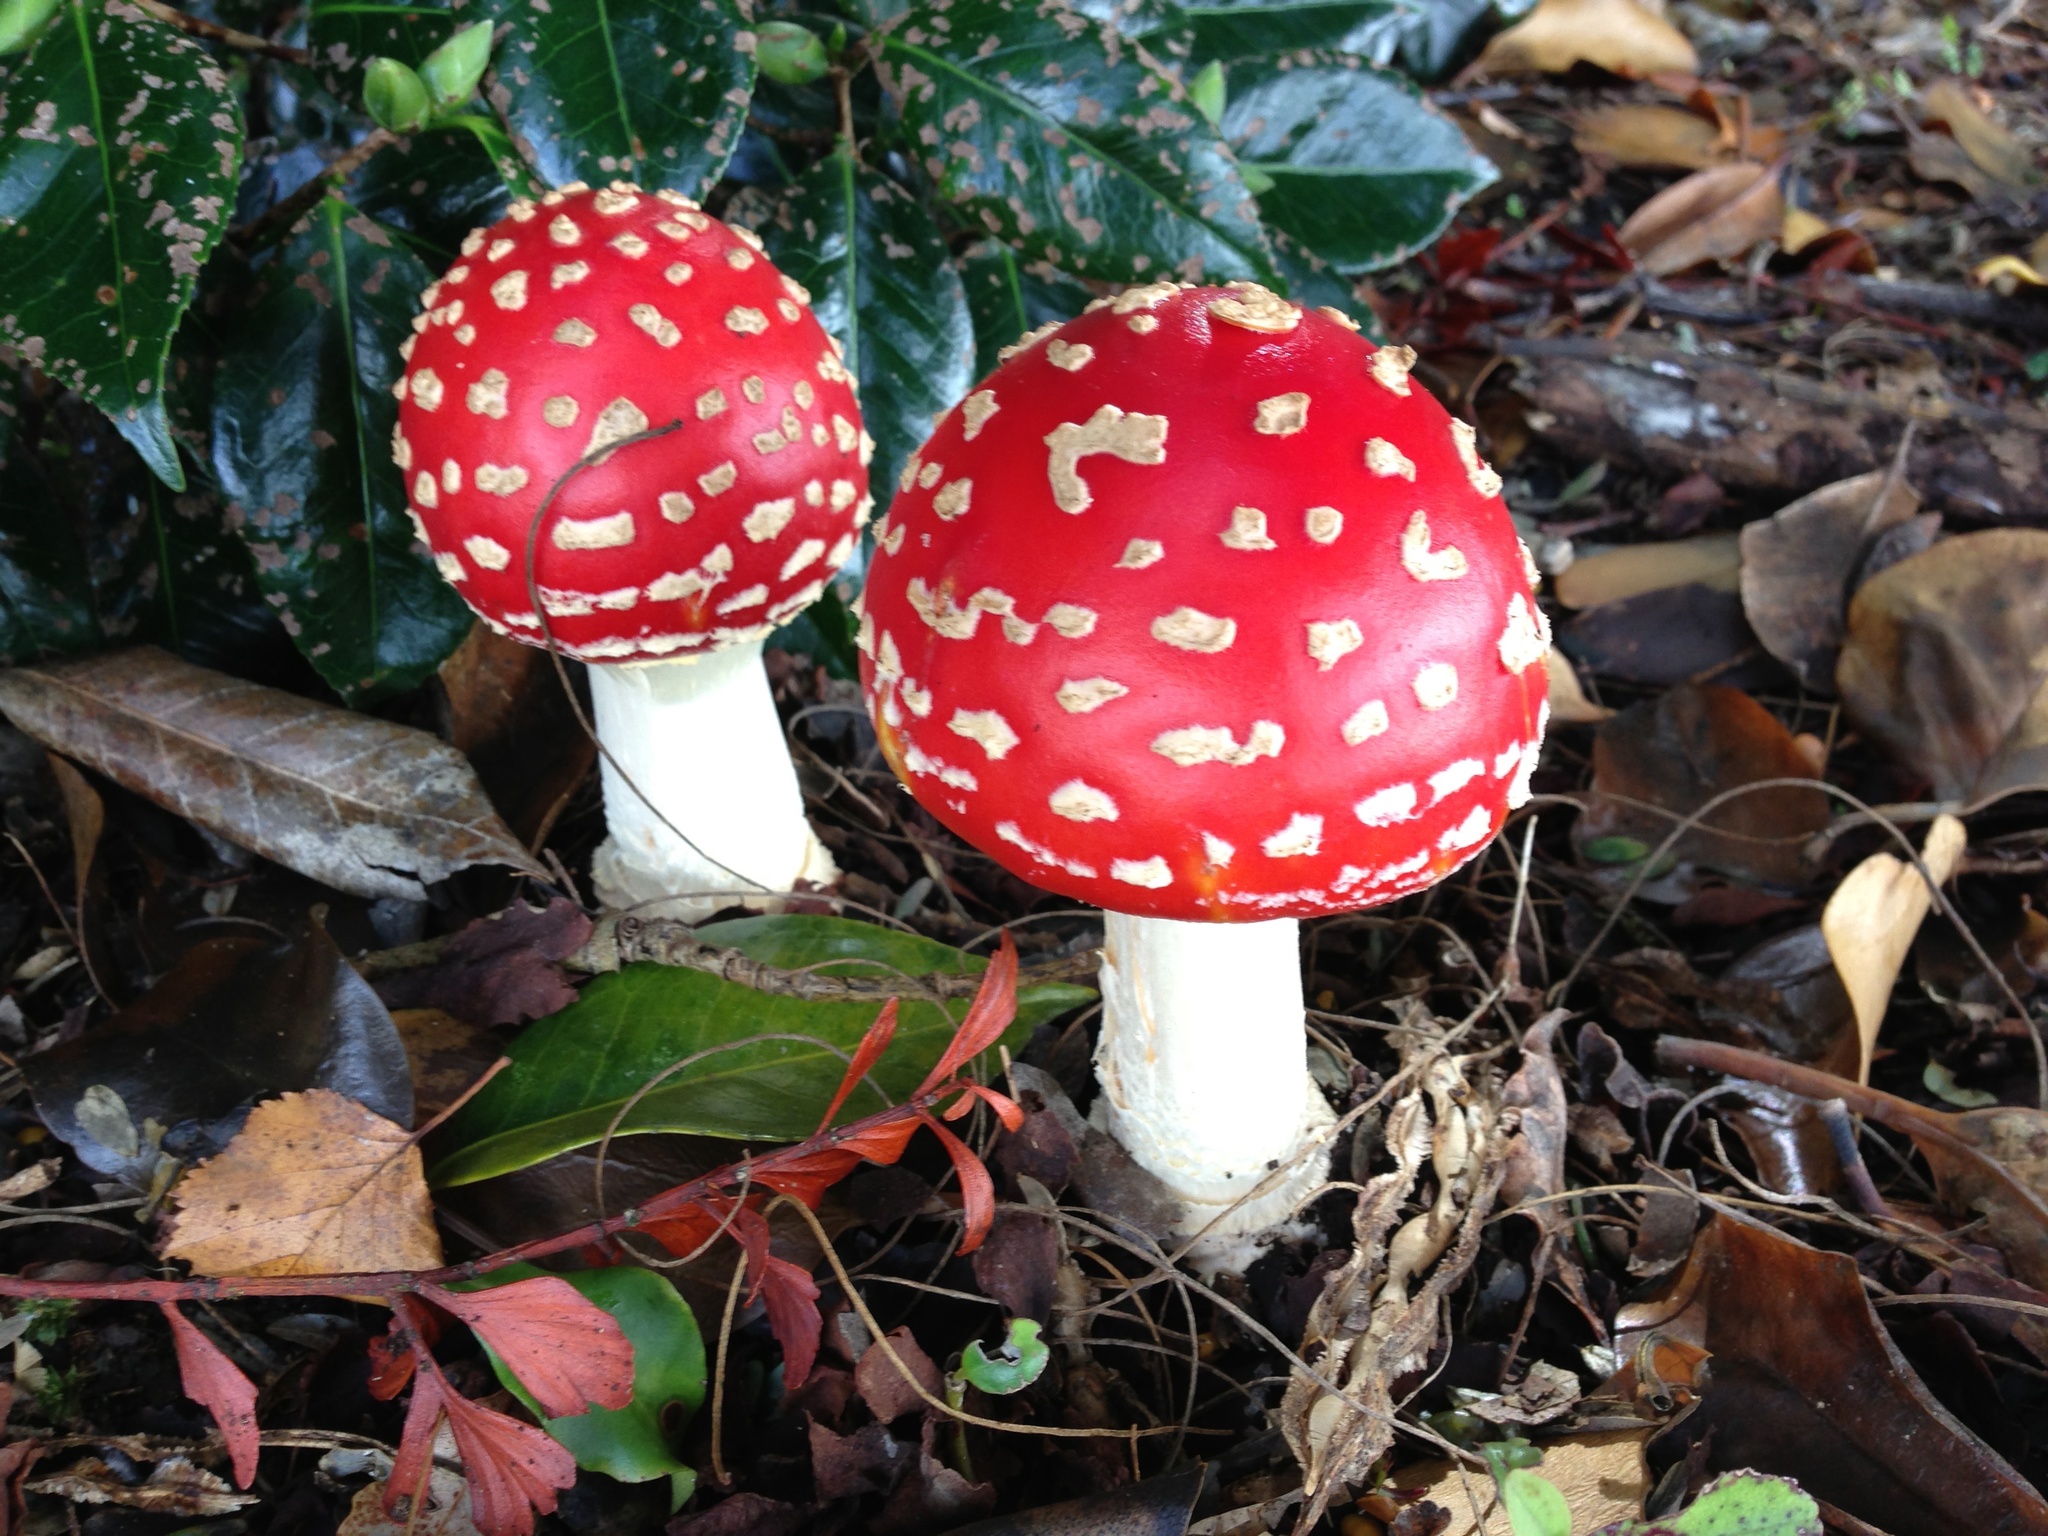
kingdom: Fungi
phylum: Basidiomycota
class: Agaricomycetes
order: Agaricales
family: Amanitaceae
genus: Amanita
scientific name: Amanita muscaria
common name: Fly agaric
